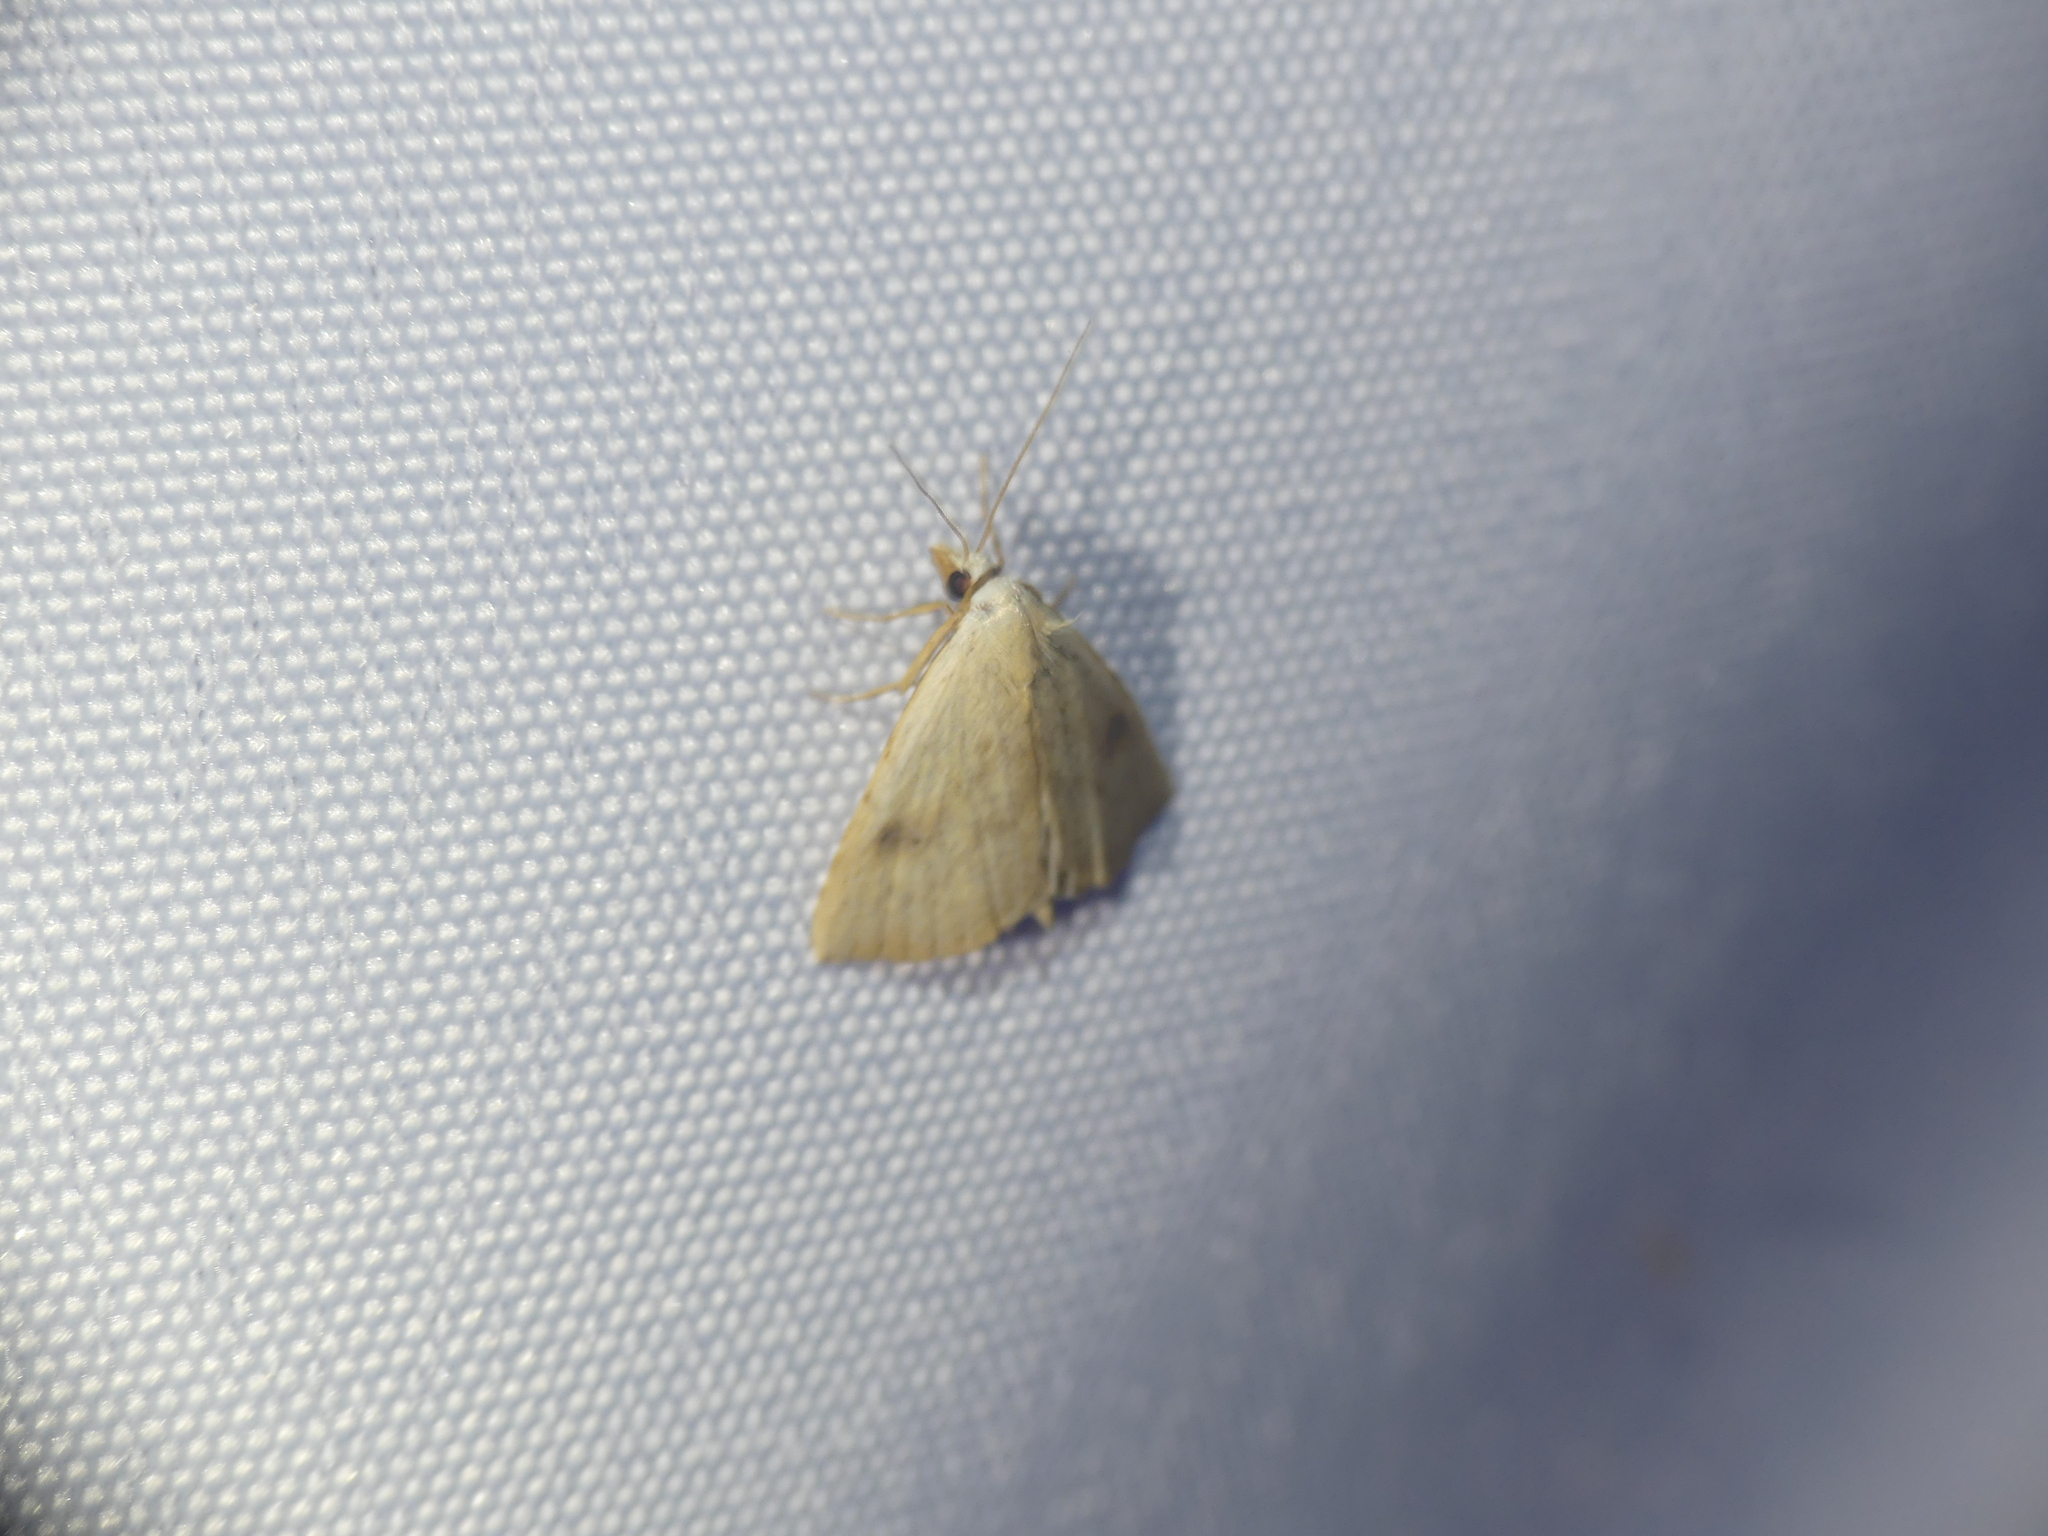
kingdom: Animalia
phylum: Arthropoda
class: Insecta
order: Lepidoptera
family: Erebidae
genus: Rivula
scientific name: Rivula sericealis
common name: Straw dot
